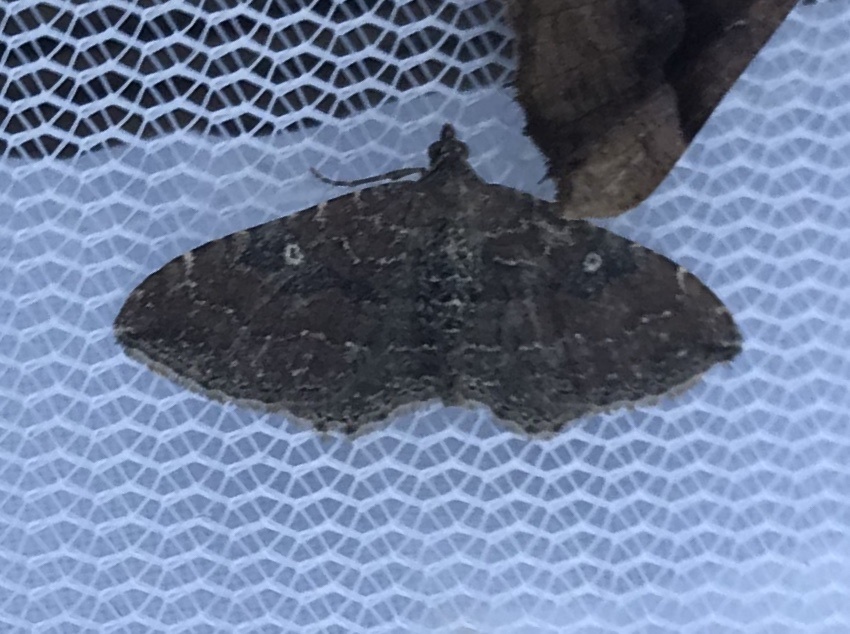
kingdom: Animalia
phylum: Arthropoda
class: Insecta
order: Lepidoptera
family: Geometridae
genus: Orthonama
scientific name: Orthonama obstipata
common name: The gem
